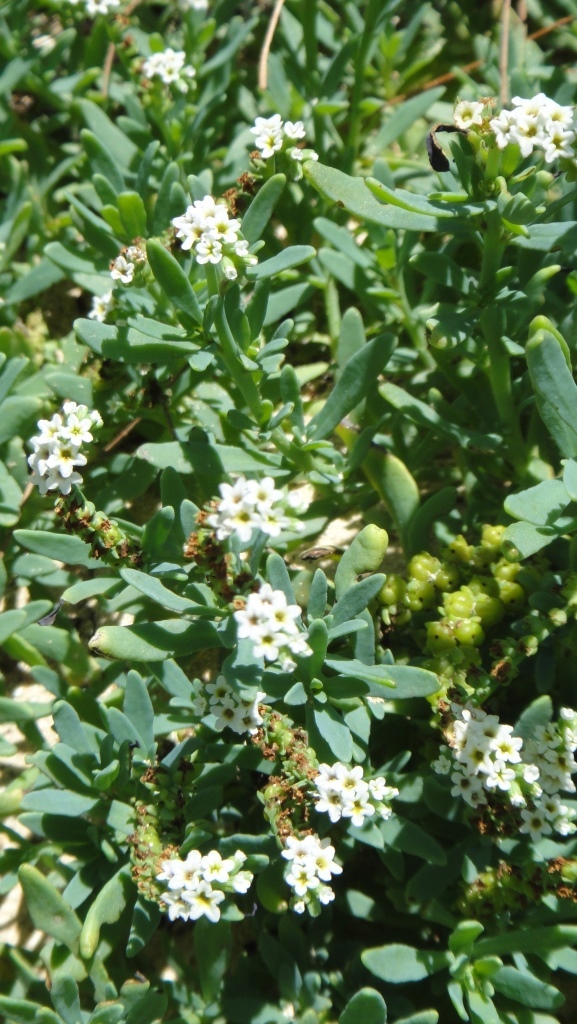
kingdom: Plantae
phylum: Tracheophyta
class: Magnoliopsida
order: Boraginales
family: Heliotropiaceae
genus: Heliotropium
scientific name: Heliotropium curassavicum
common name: Seaside heliotrope
